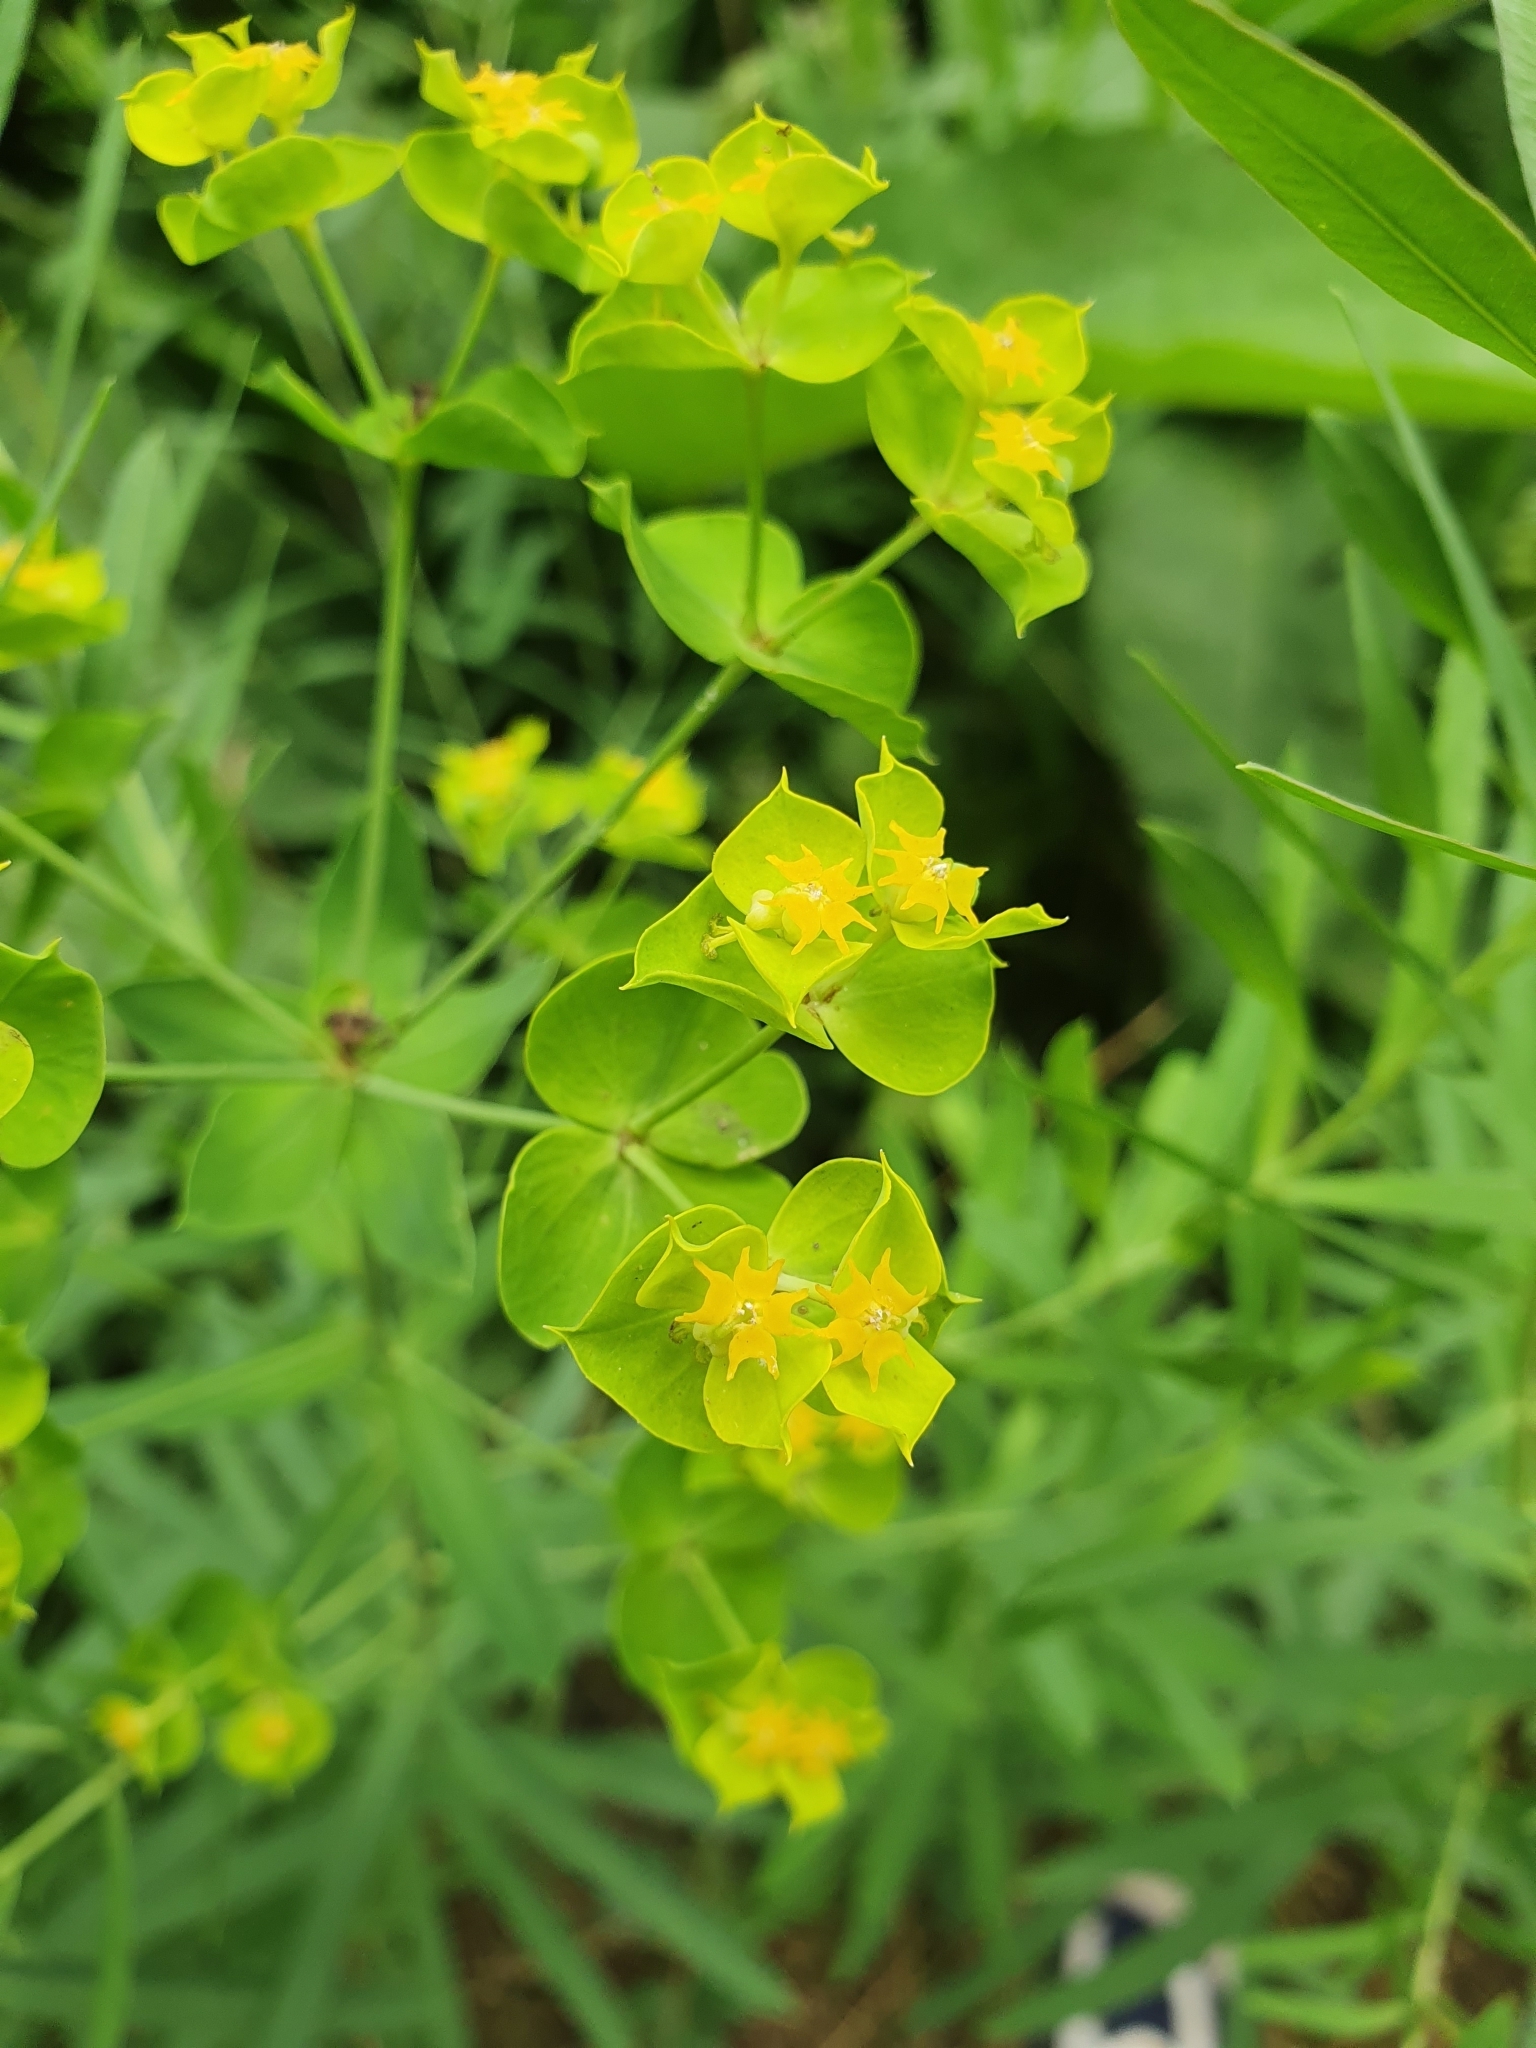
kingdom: Plantae
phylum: Tracheophyta
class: Magnoliopsida
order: Malpighiales
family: Euphorbiaceae
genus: Euphorbia
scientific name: Euphorbia esula
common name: Leafy spurge
